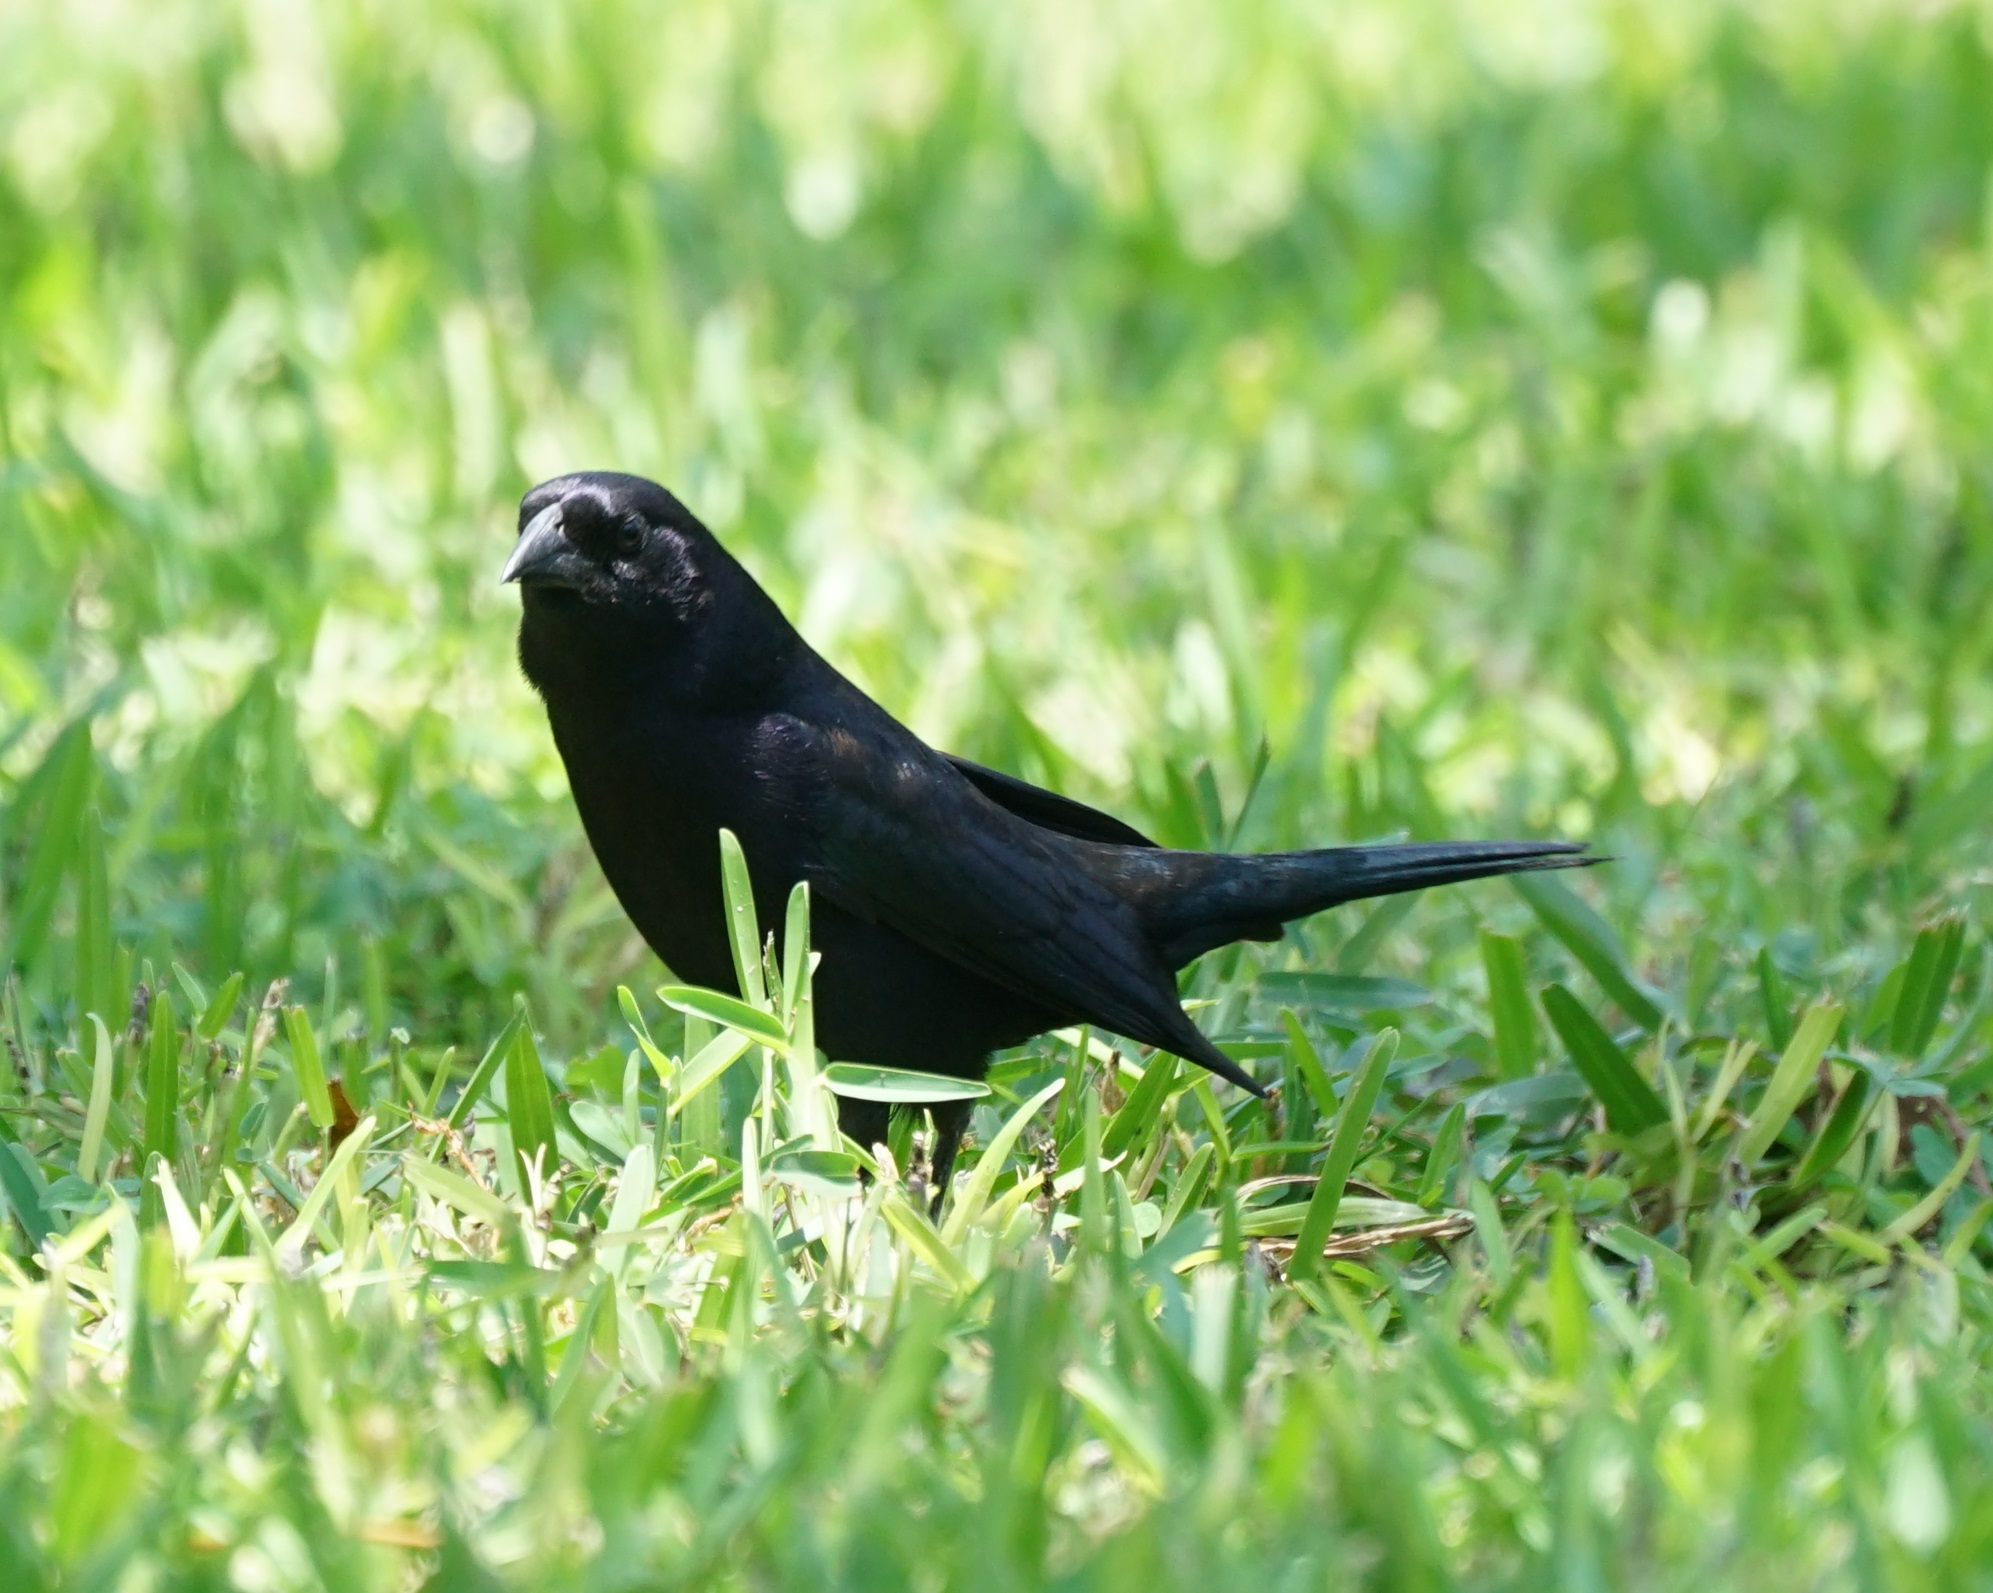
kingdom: Animalia
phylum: Chordata
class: Aves
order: Passeriformes
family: Icteridae
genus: Molothrus
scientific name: Molothrus bonariensis
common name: Shiny cowbird
